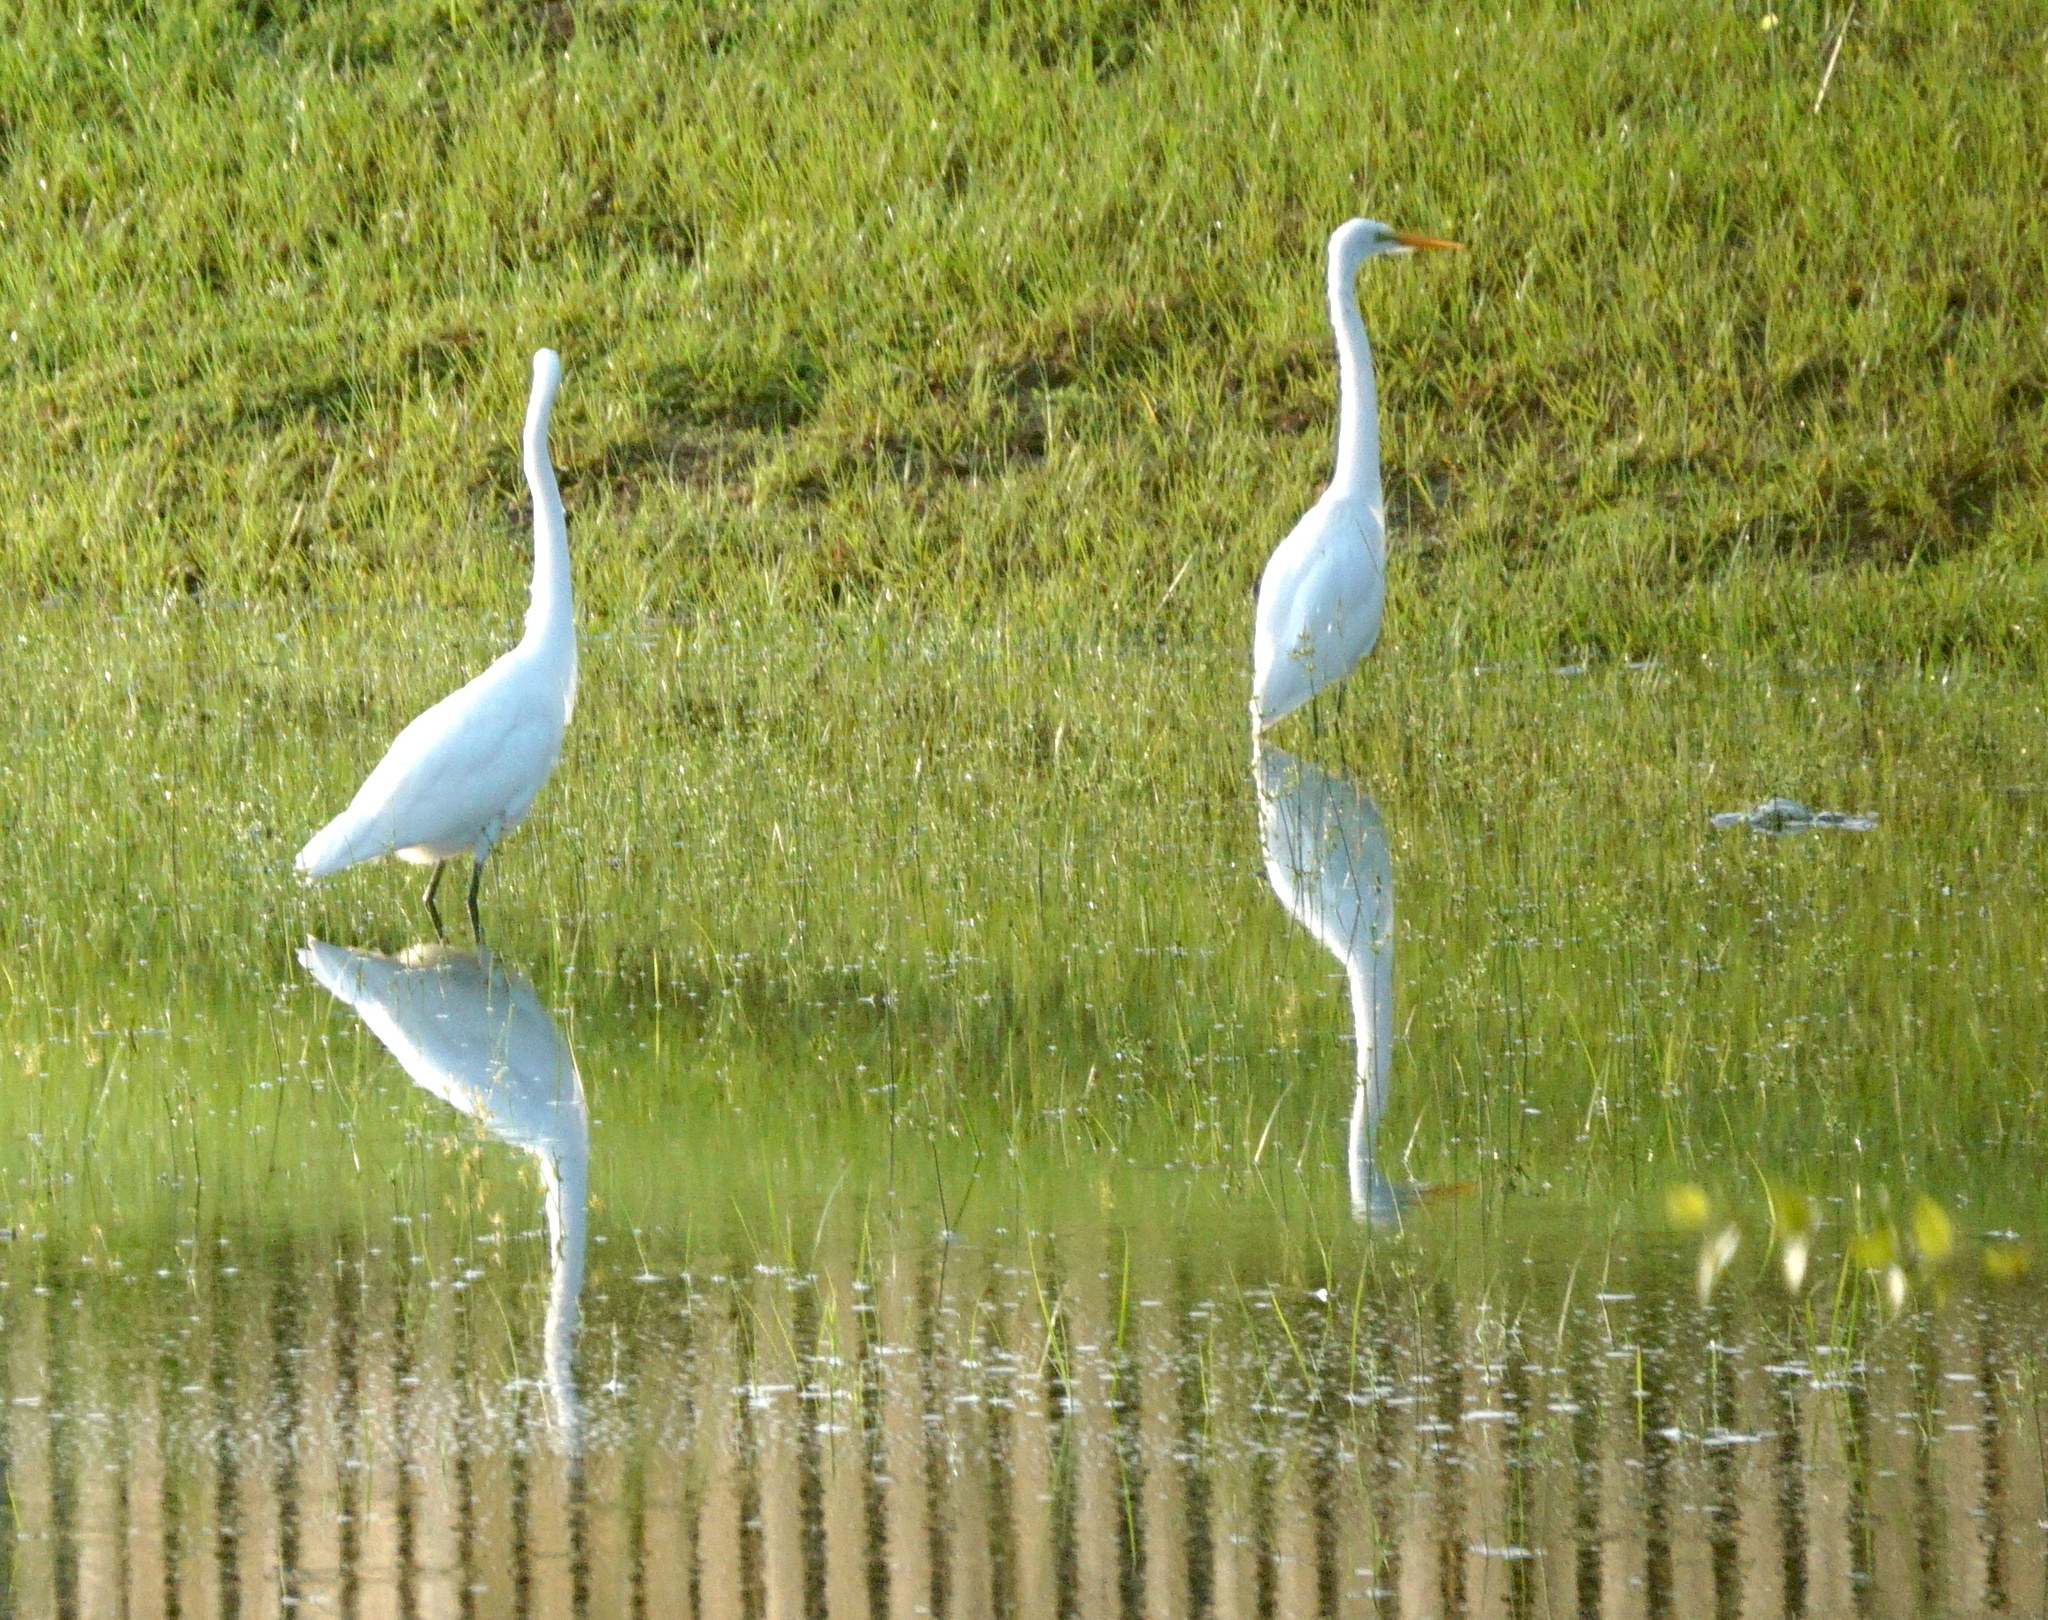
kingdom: Animalia
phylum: Chordata
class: Aves
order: Pelecaniformes
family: Ardeidae
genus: Ardea
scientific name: Ardea alba
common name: Great egret
